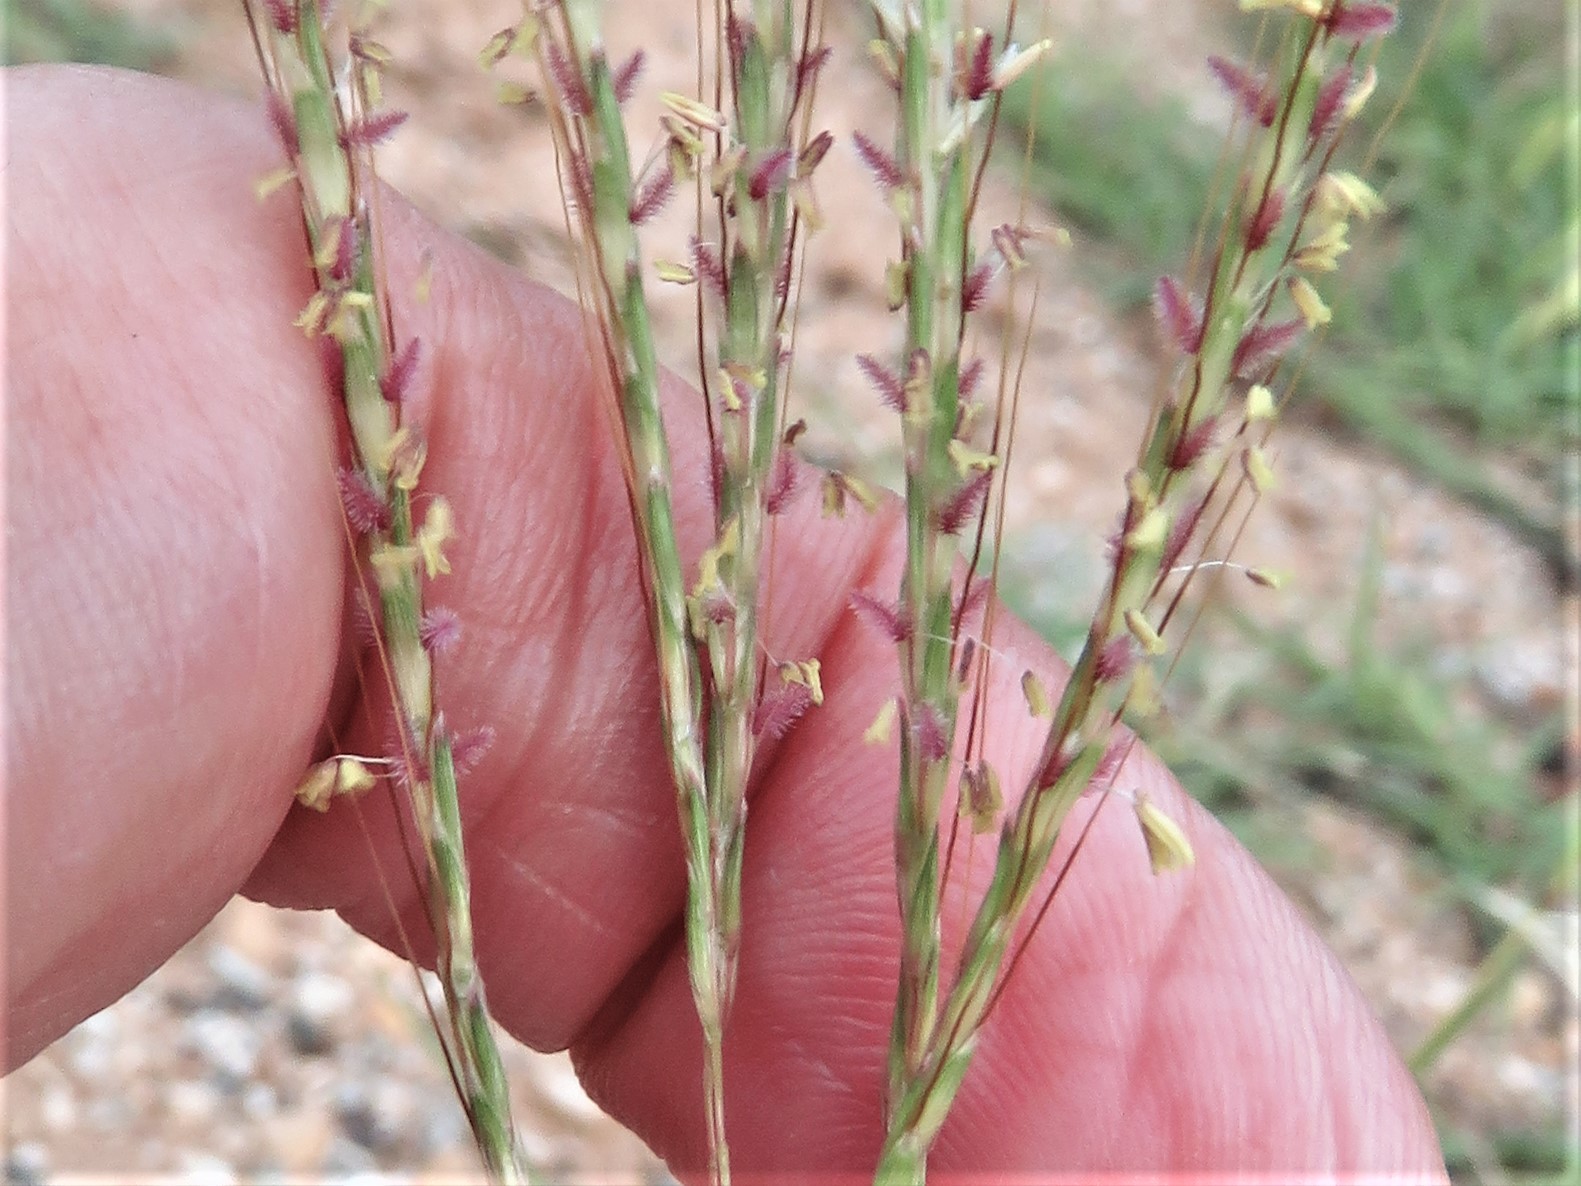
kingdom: Plantae
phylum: Tracheophyta
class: Liliopsida
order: Poales
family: Poaceae
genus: Bothriochloa
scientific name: Bothriochloa ischaemum
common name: Yellow bluestem
